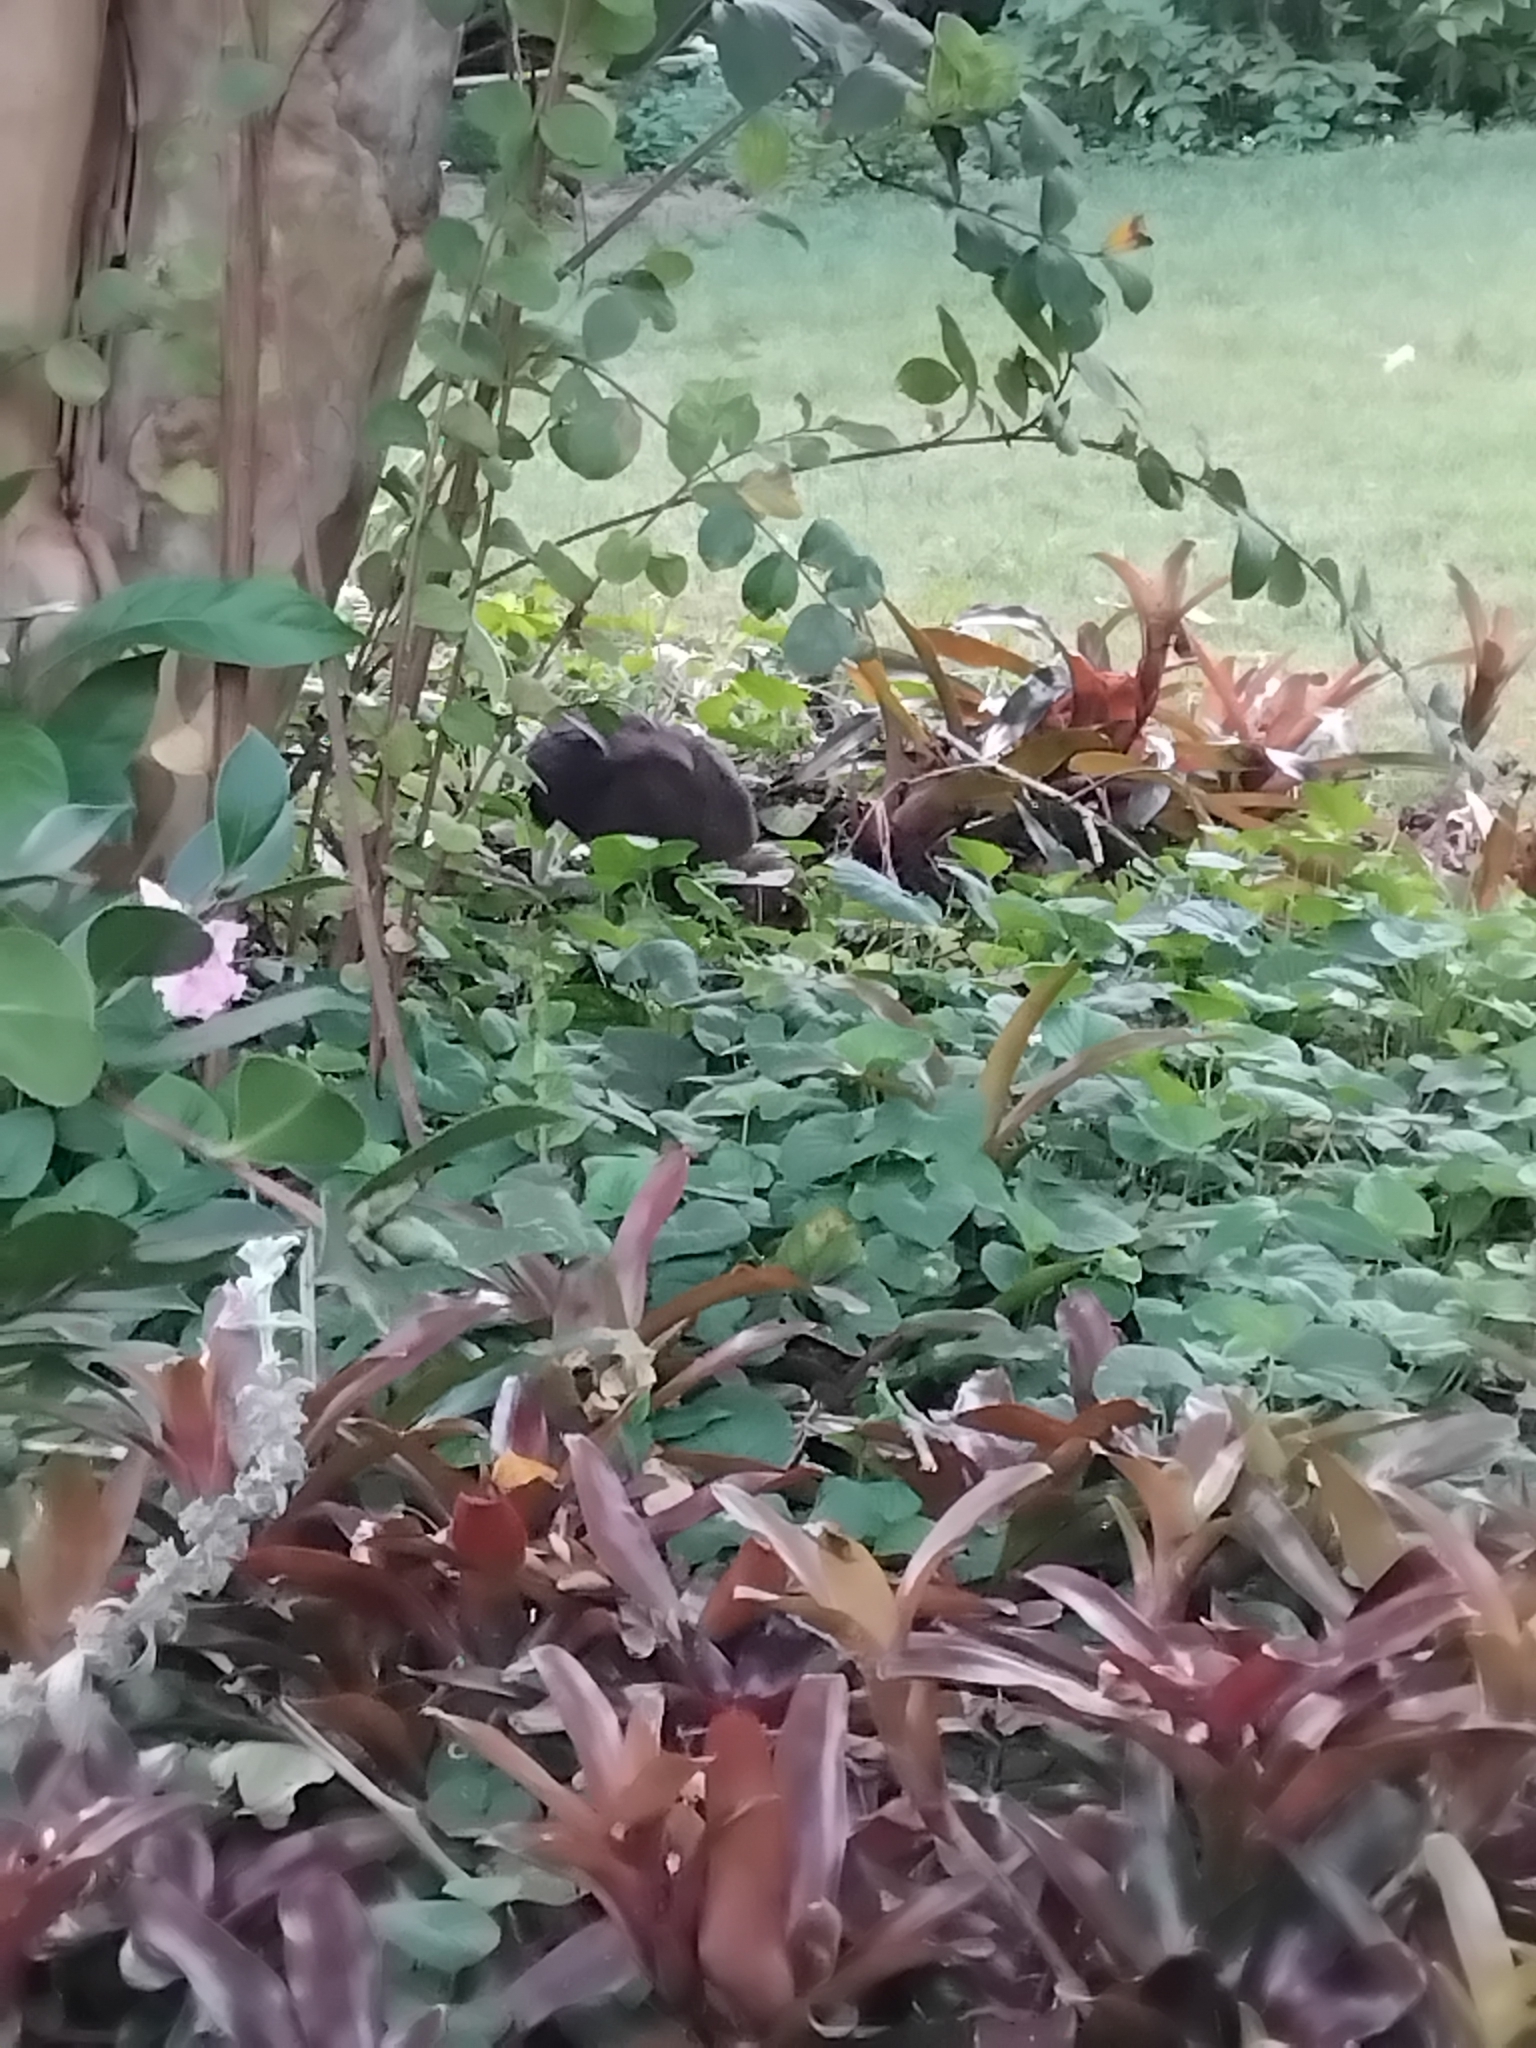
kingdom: Animalia
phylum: Chordata
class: Aves
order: Galliformes
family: Megapodiidae
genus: Alectura
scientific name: Alectura lathami
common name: Australian brushturkey
